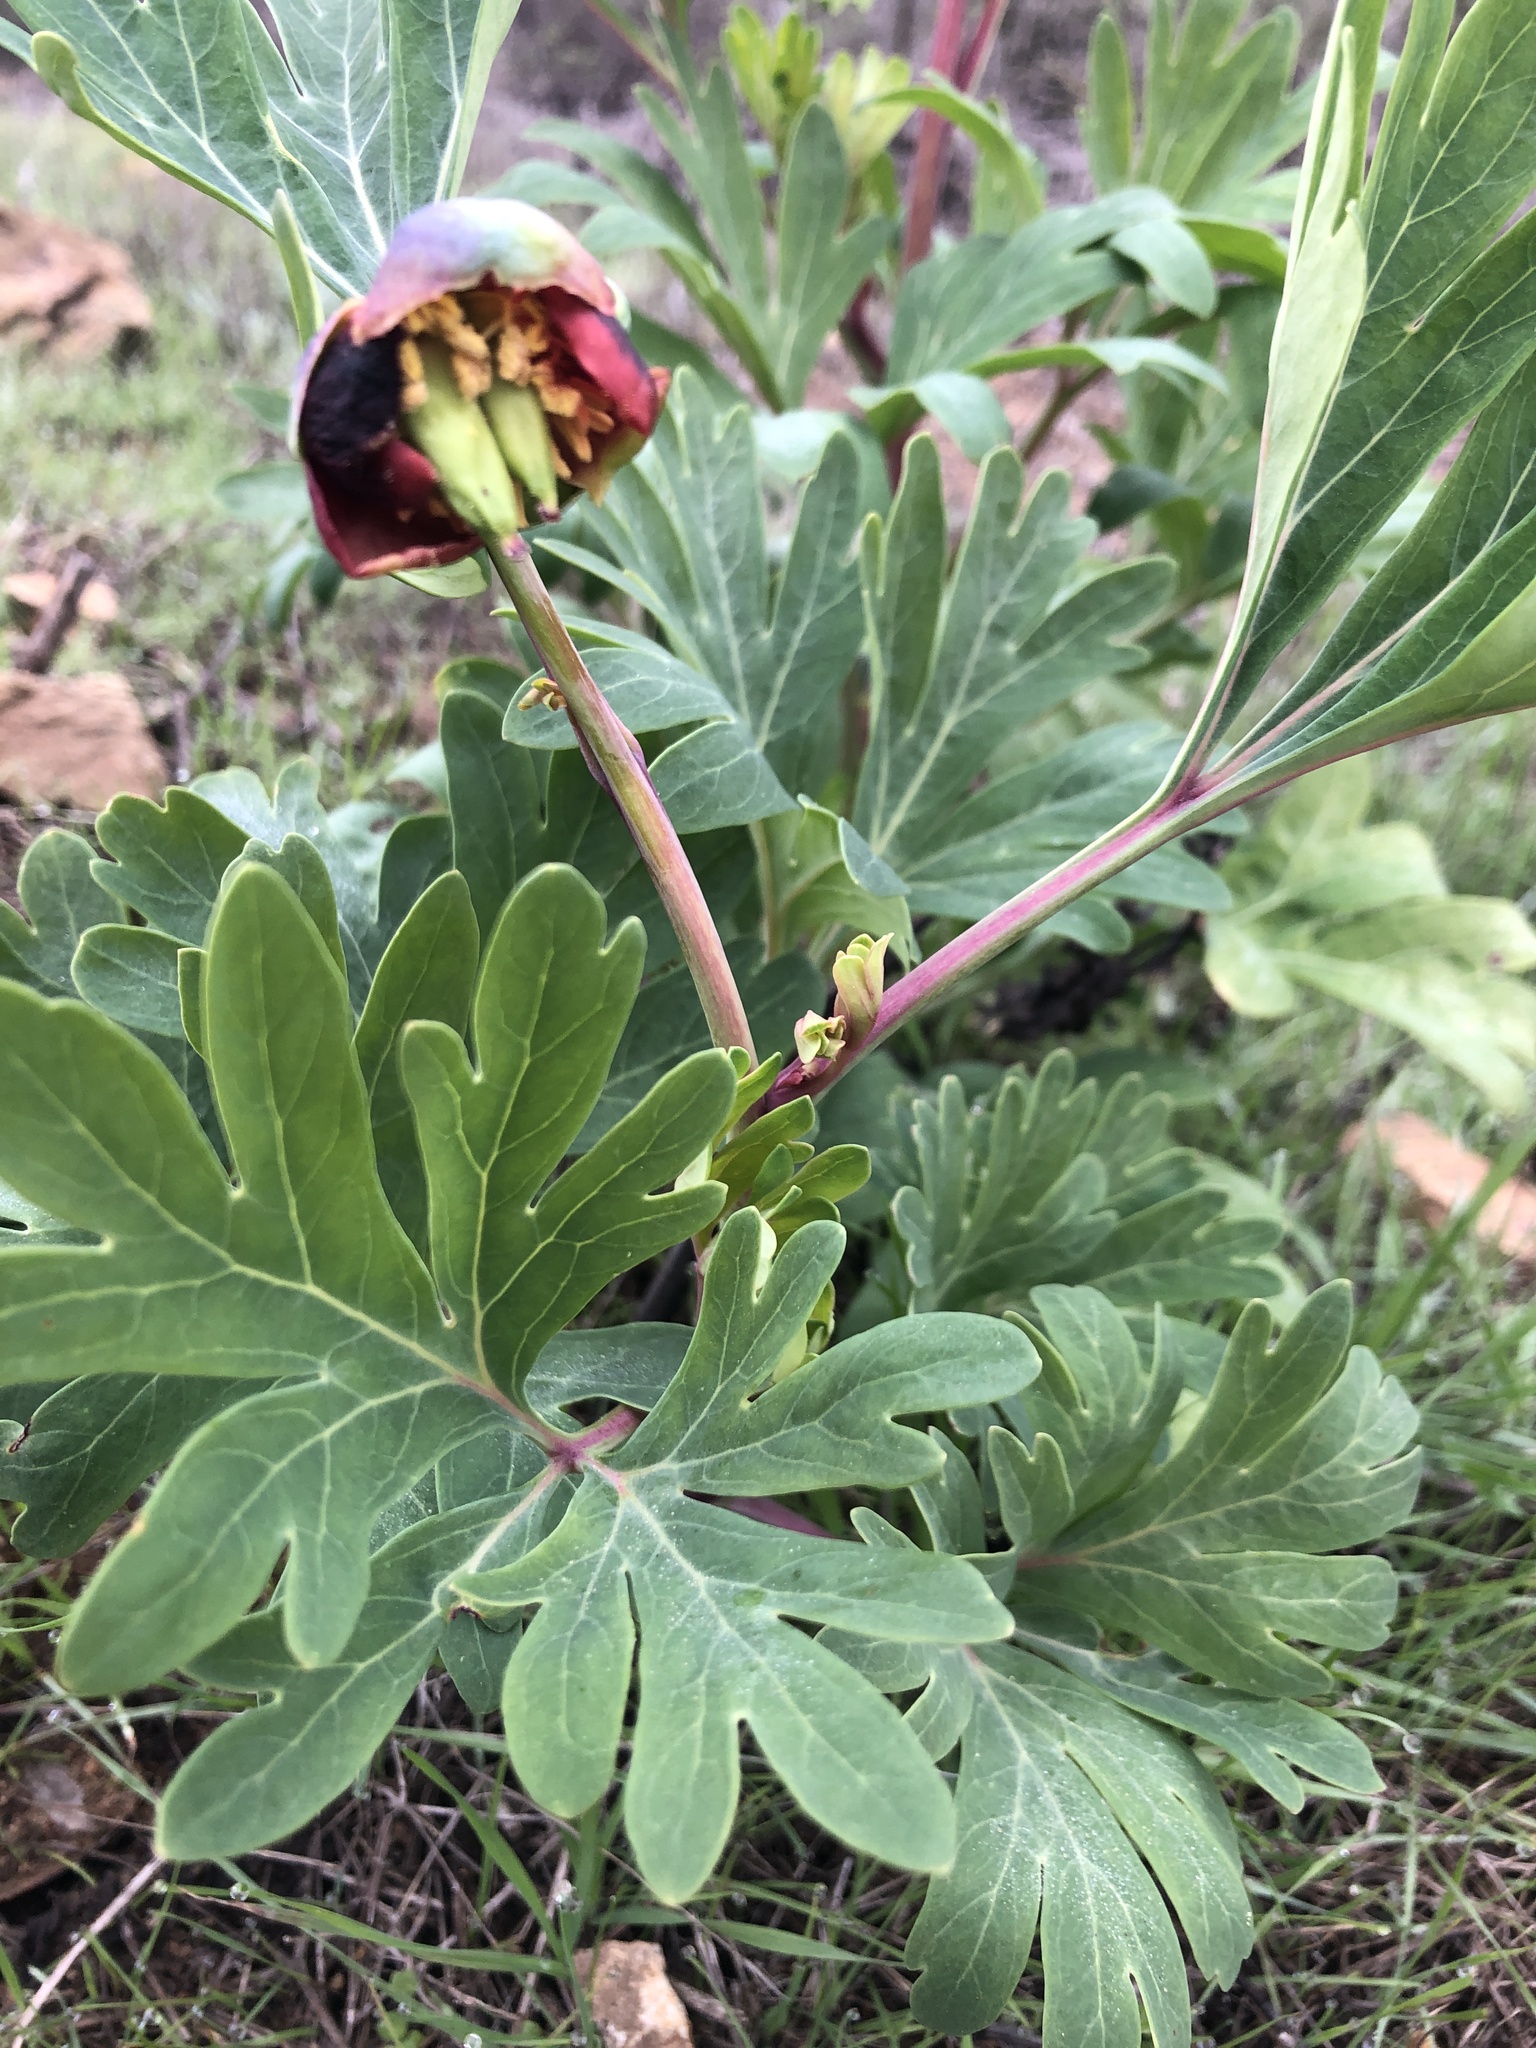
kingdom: Plantae
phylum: Tracheophyta
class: Magnoliopsida
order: Saxifragales
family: Paeoniaceae
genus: Paeonia
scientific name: Paeonia californica
